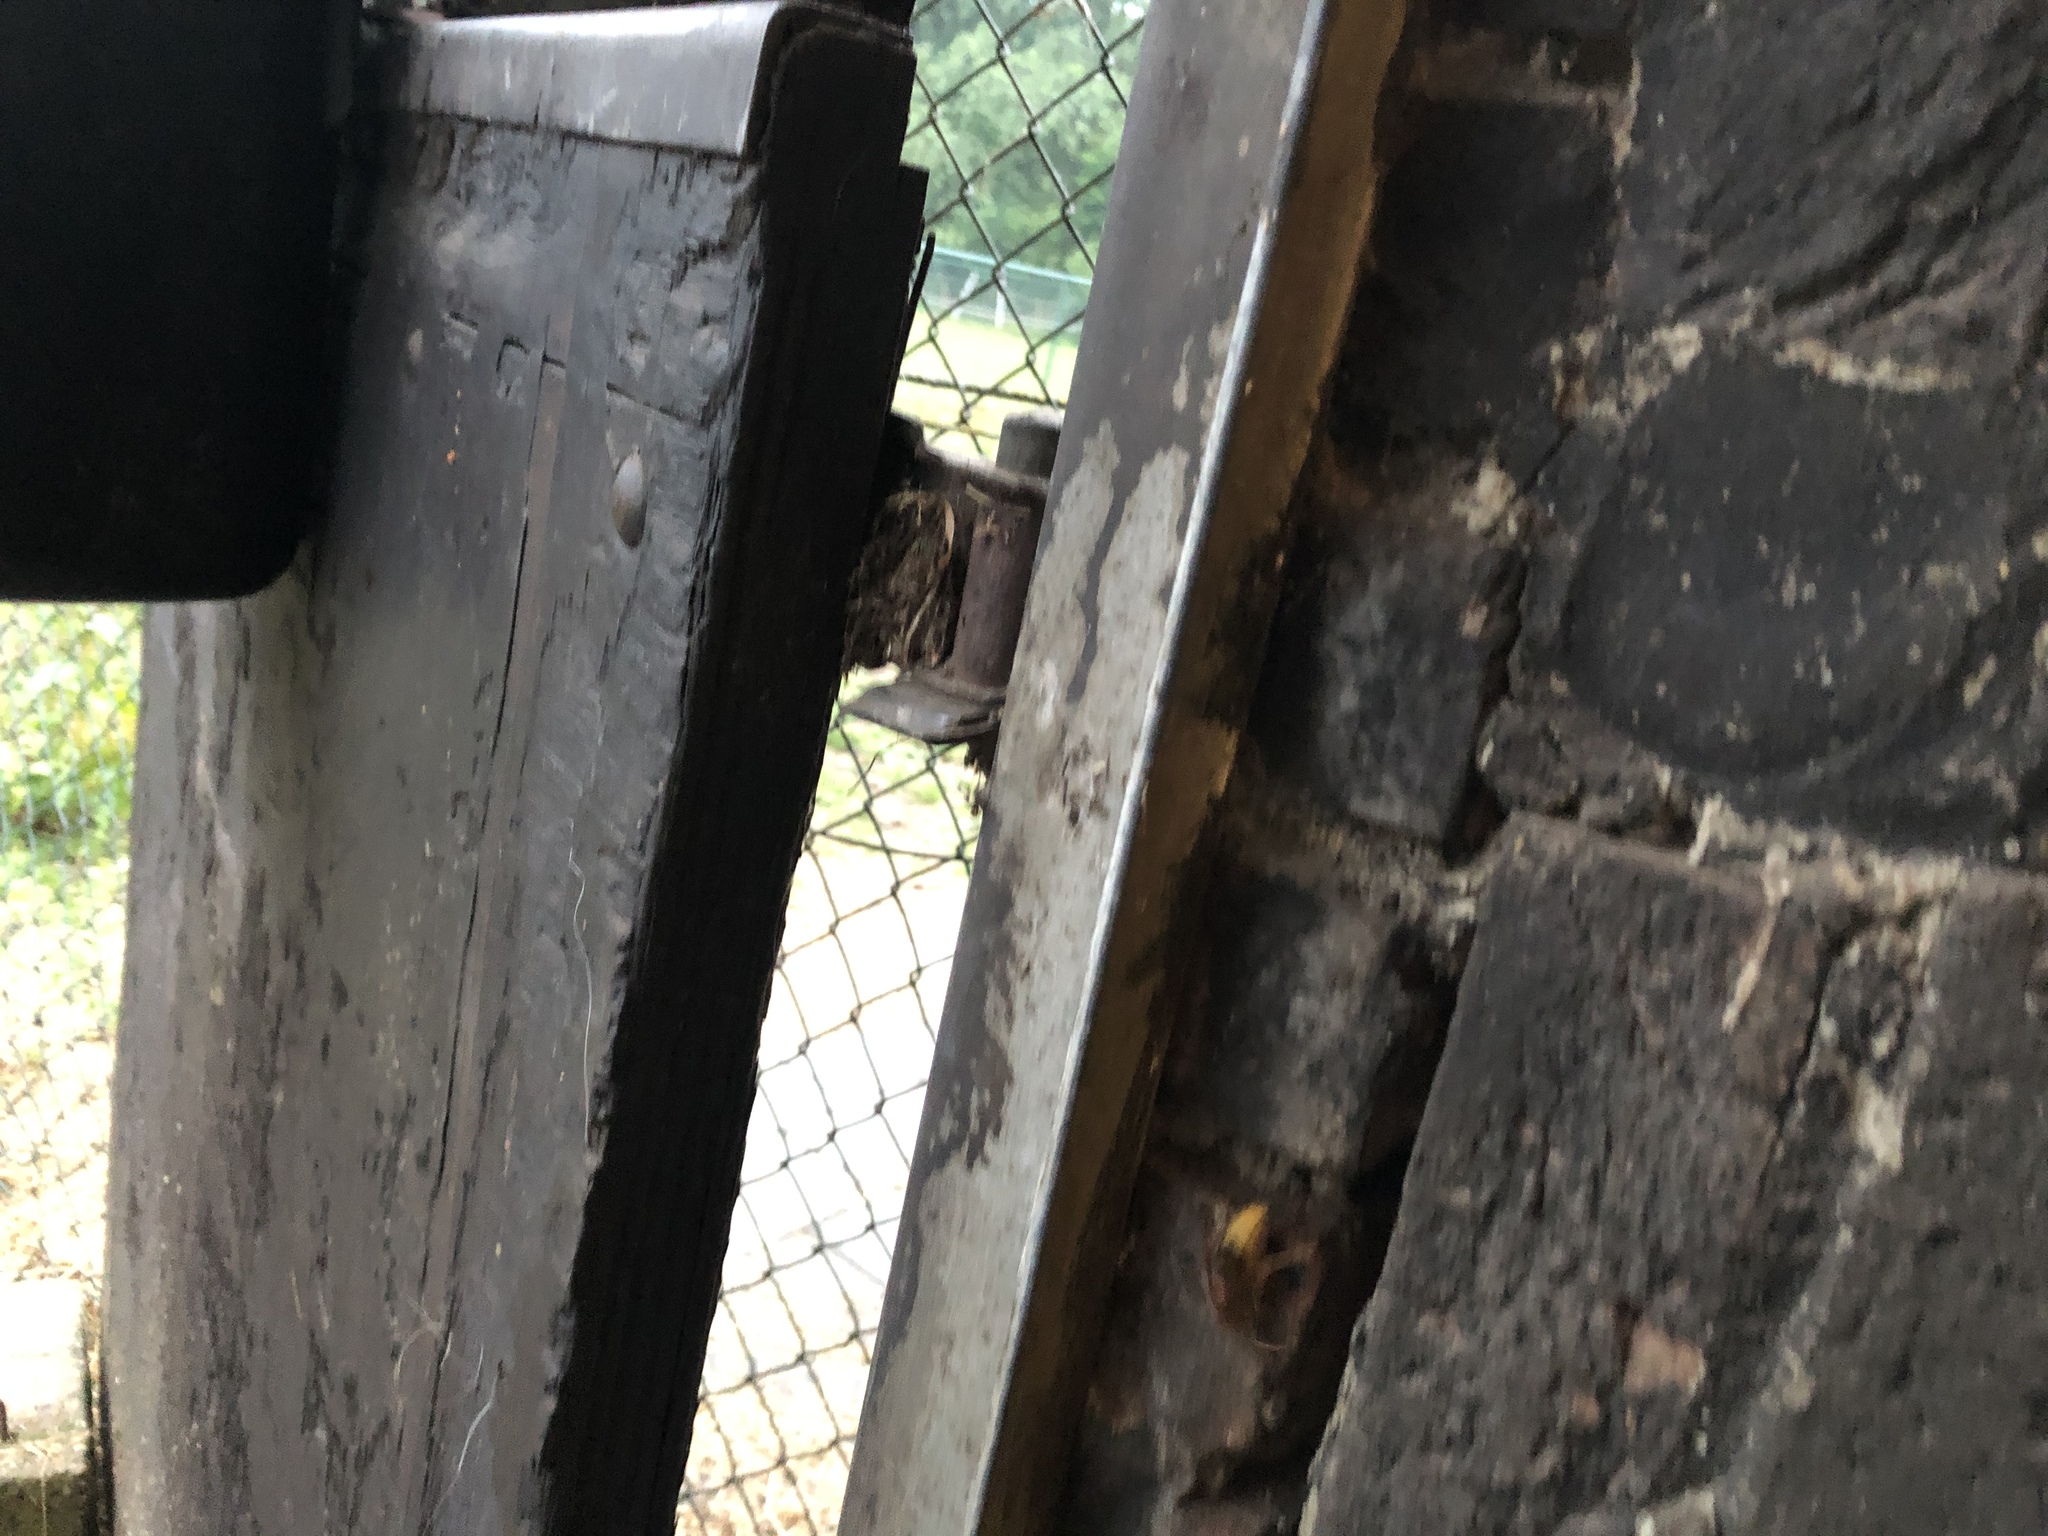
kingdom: Animalia
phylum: Arthropoda
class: Insecta
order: Hymenoptera
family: Vespidae
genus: Vespa
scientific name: Vespa crabro
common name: Hornet
